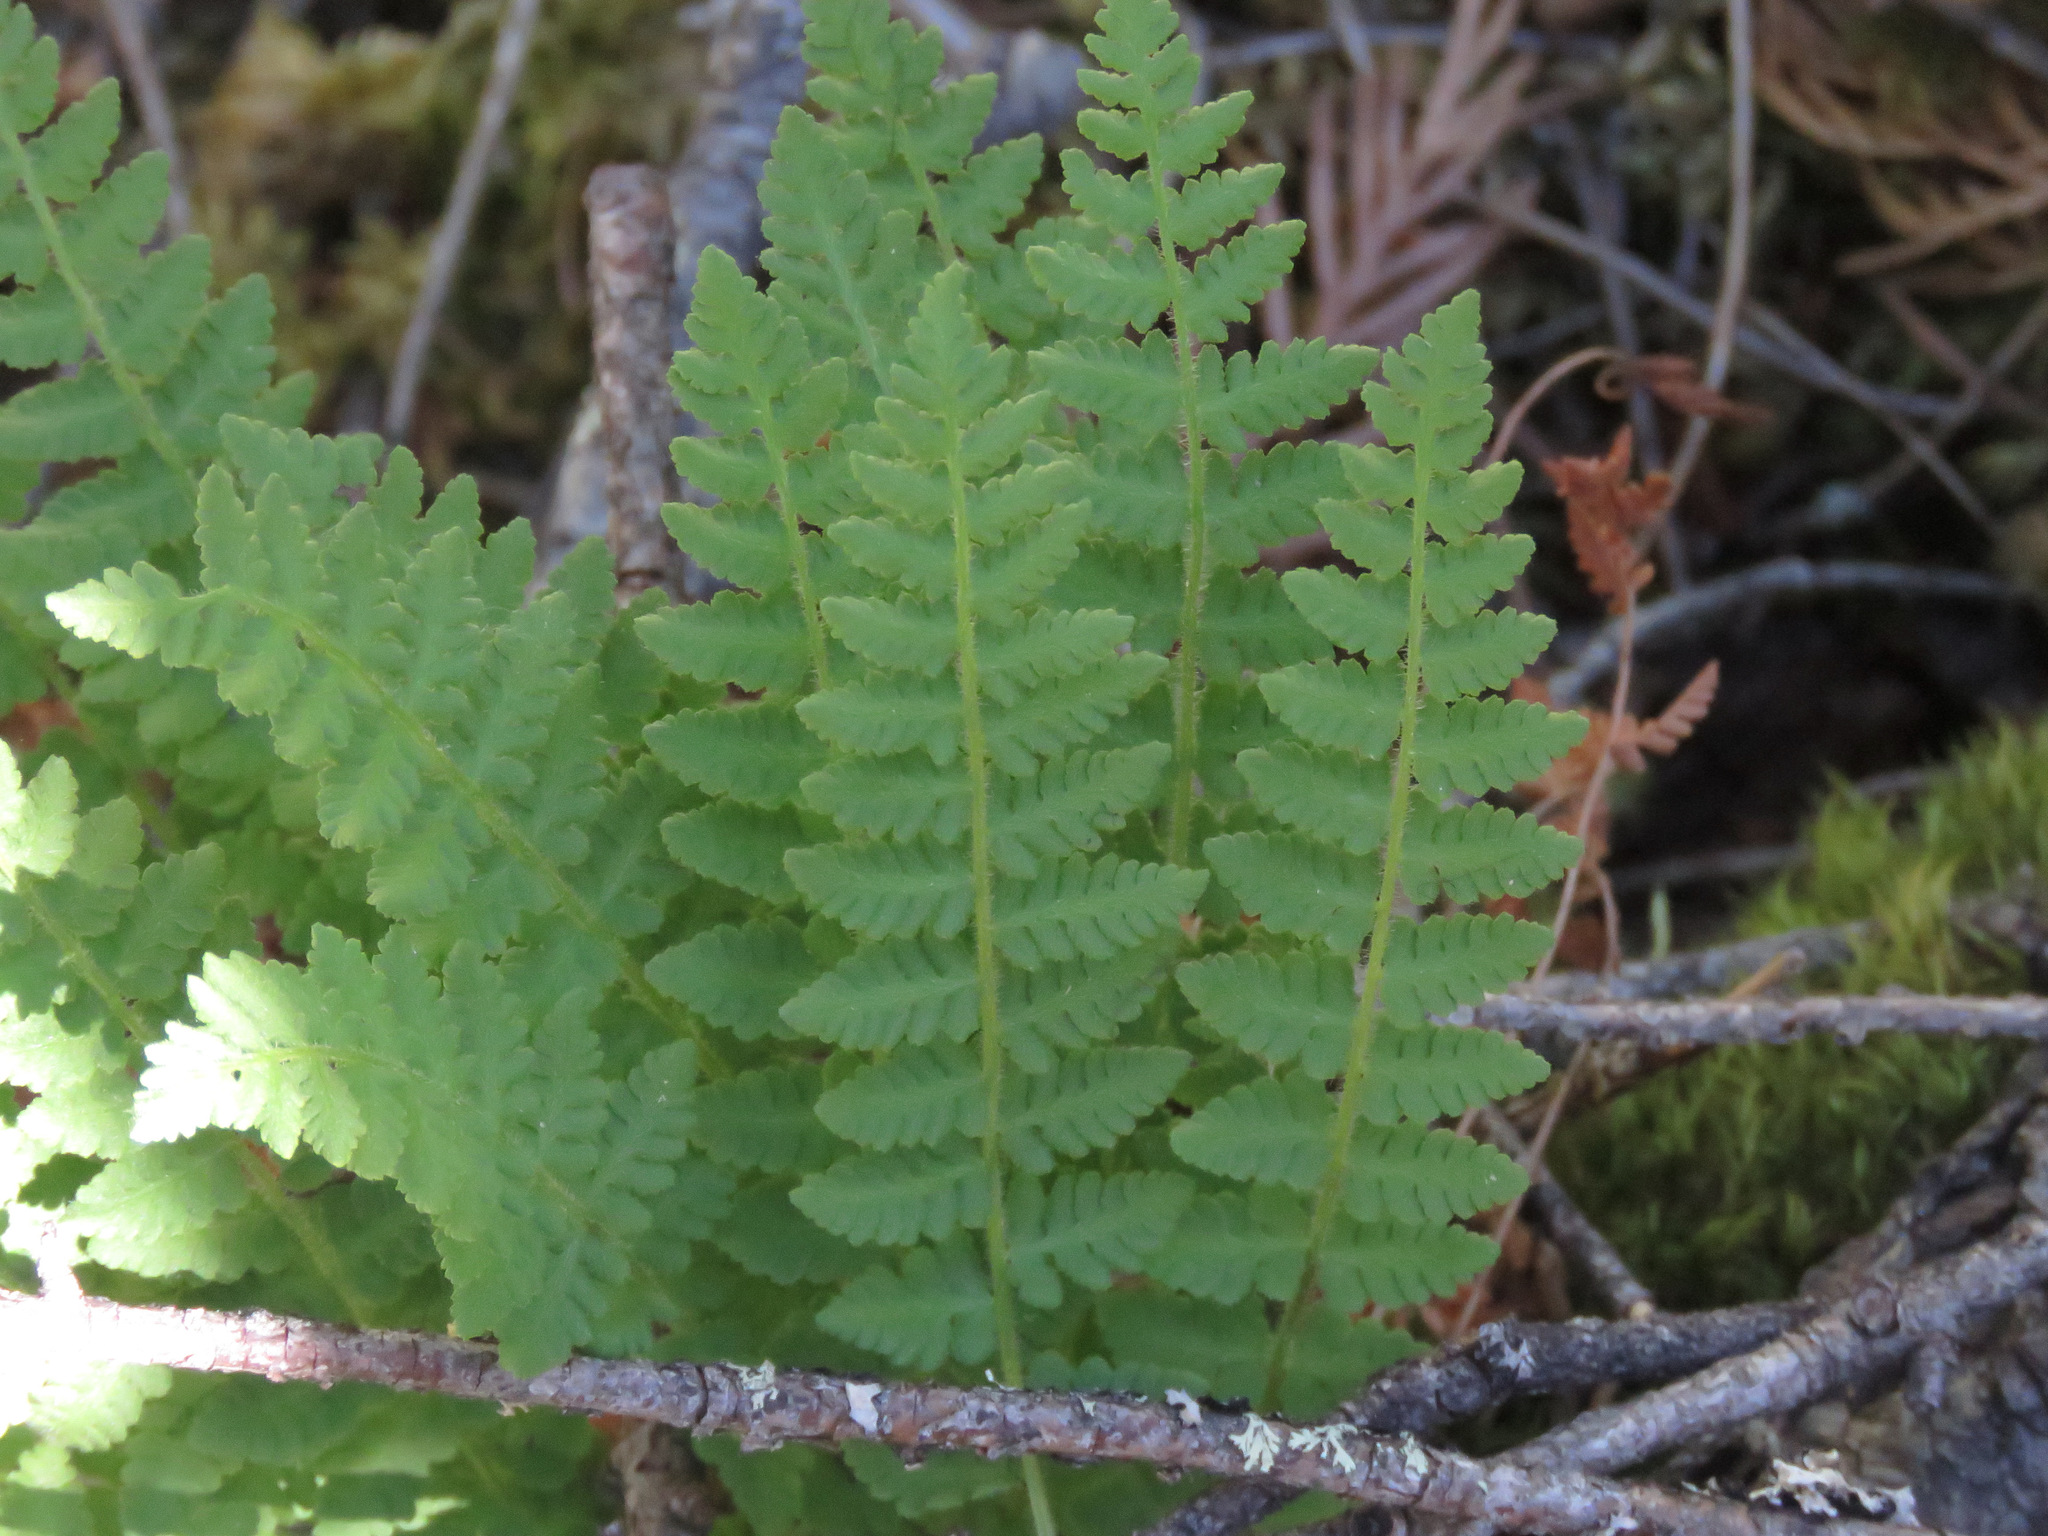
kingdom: Plantae
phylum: Tracheophyta
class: Polypodiopsida
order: Polypodiales
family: Woodsiaceae
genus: Physematium
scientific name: Physematium scopulinum
